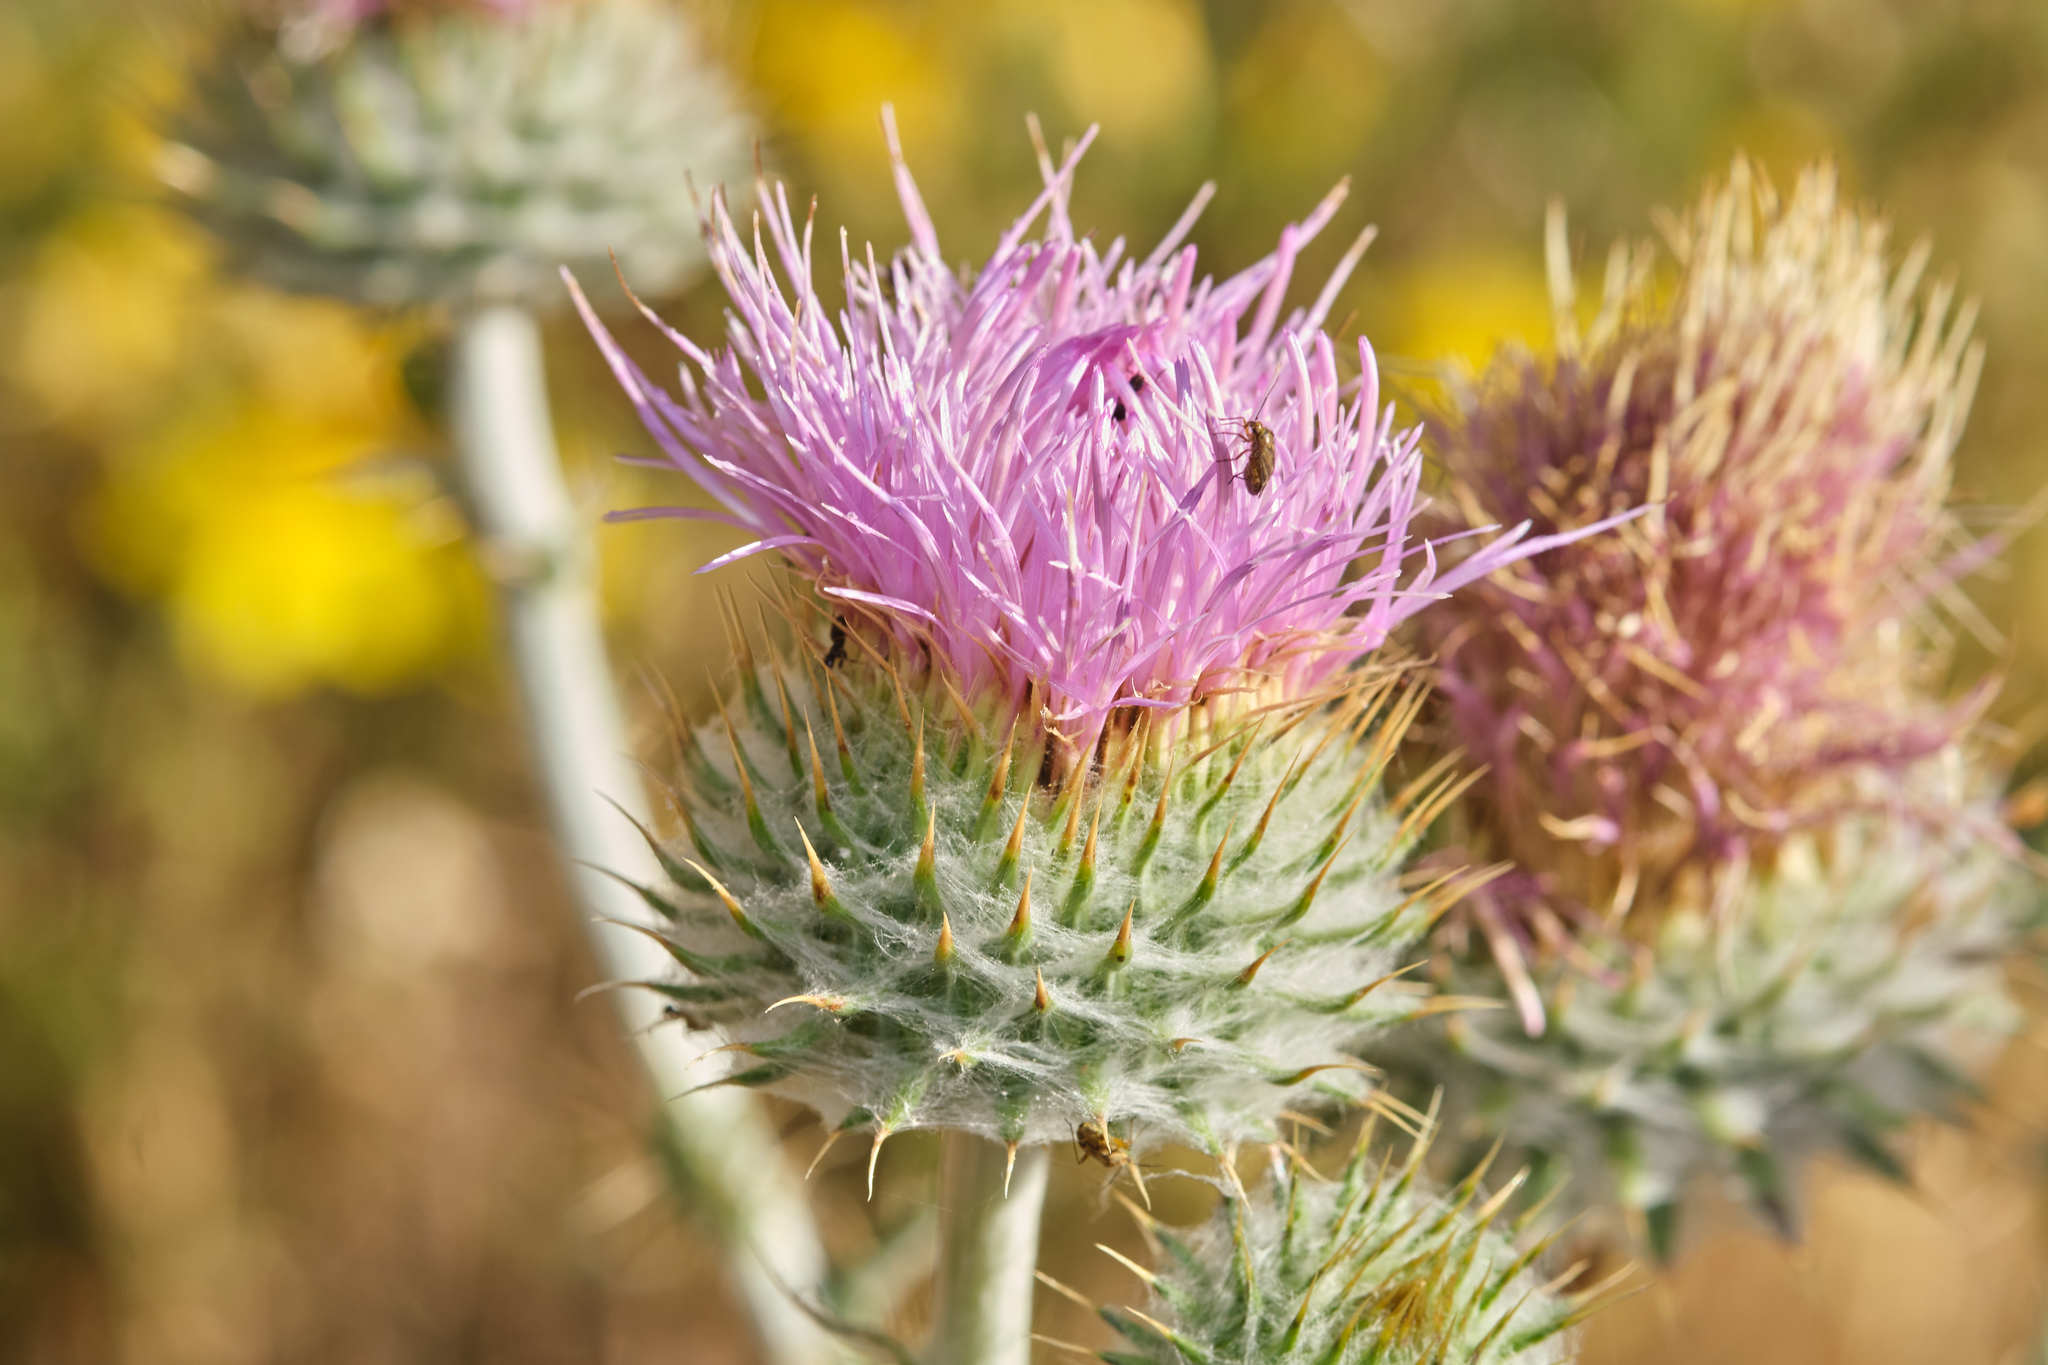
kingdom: Plantae
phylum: Tracheophyta
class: Magnoliopsida
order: Asterales
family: Asteraceae
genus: Cirsium
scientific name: Cirsium occidentale
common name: Western thistle
